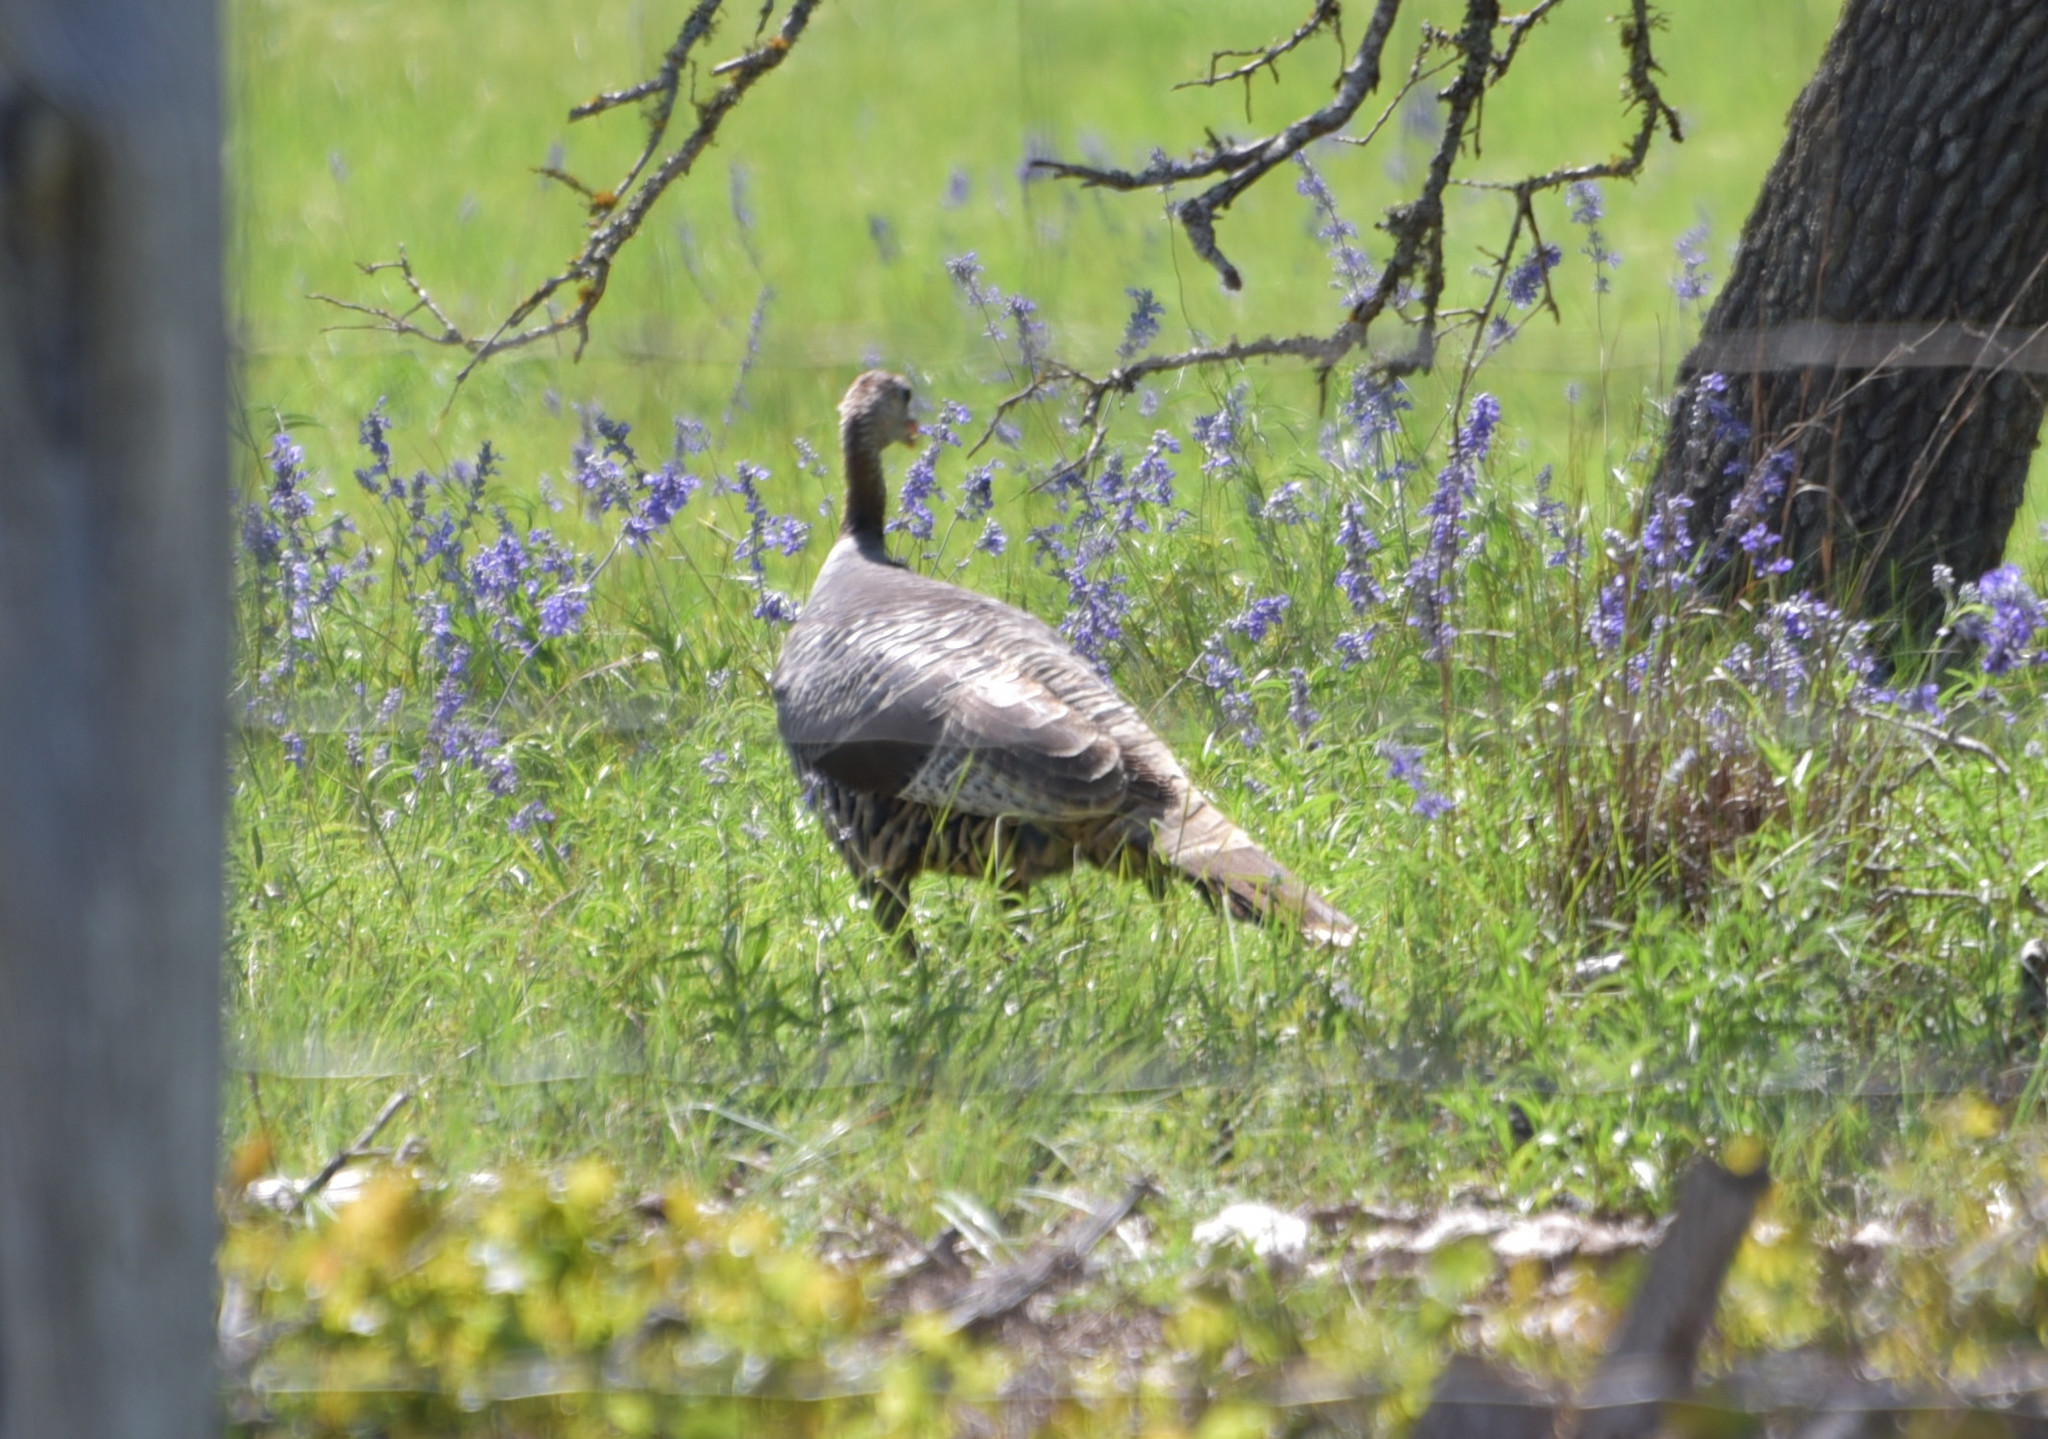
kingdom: Animalia
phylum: Chordata
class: Aves
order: Galliformes
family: Phasianidae
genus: Meleagris
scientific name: Meleagris gallopavo
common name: Wild turkey
